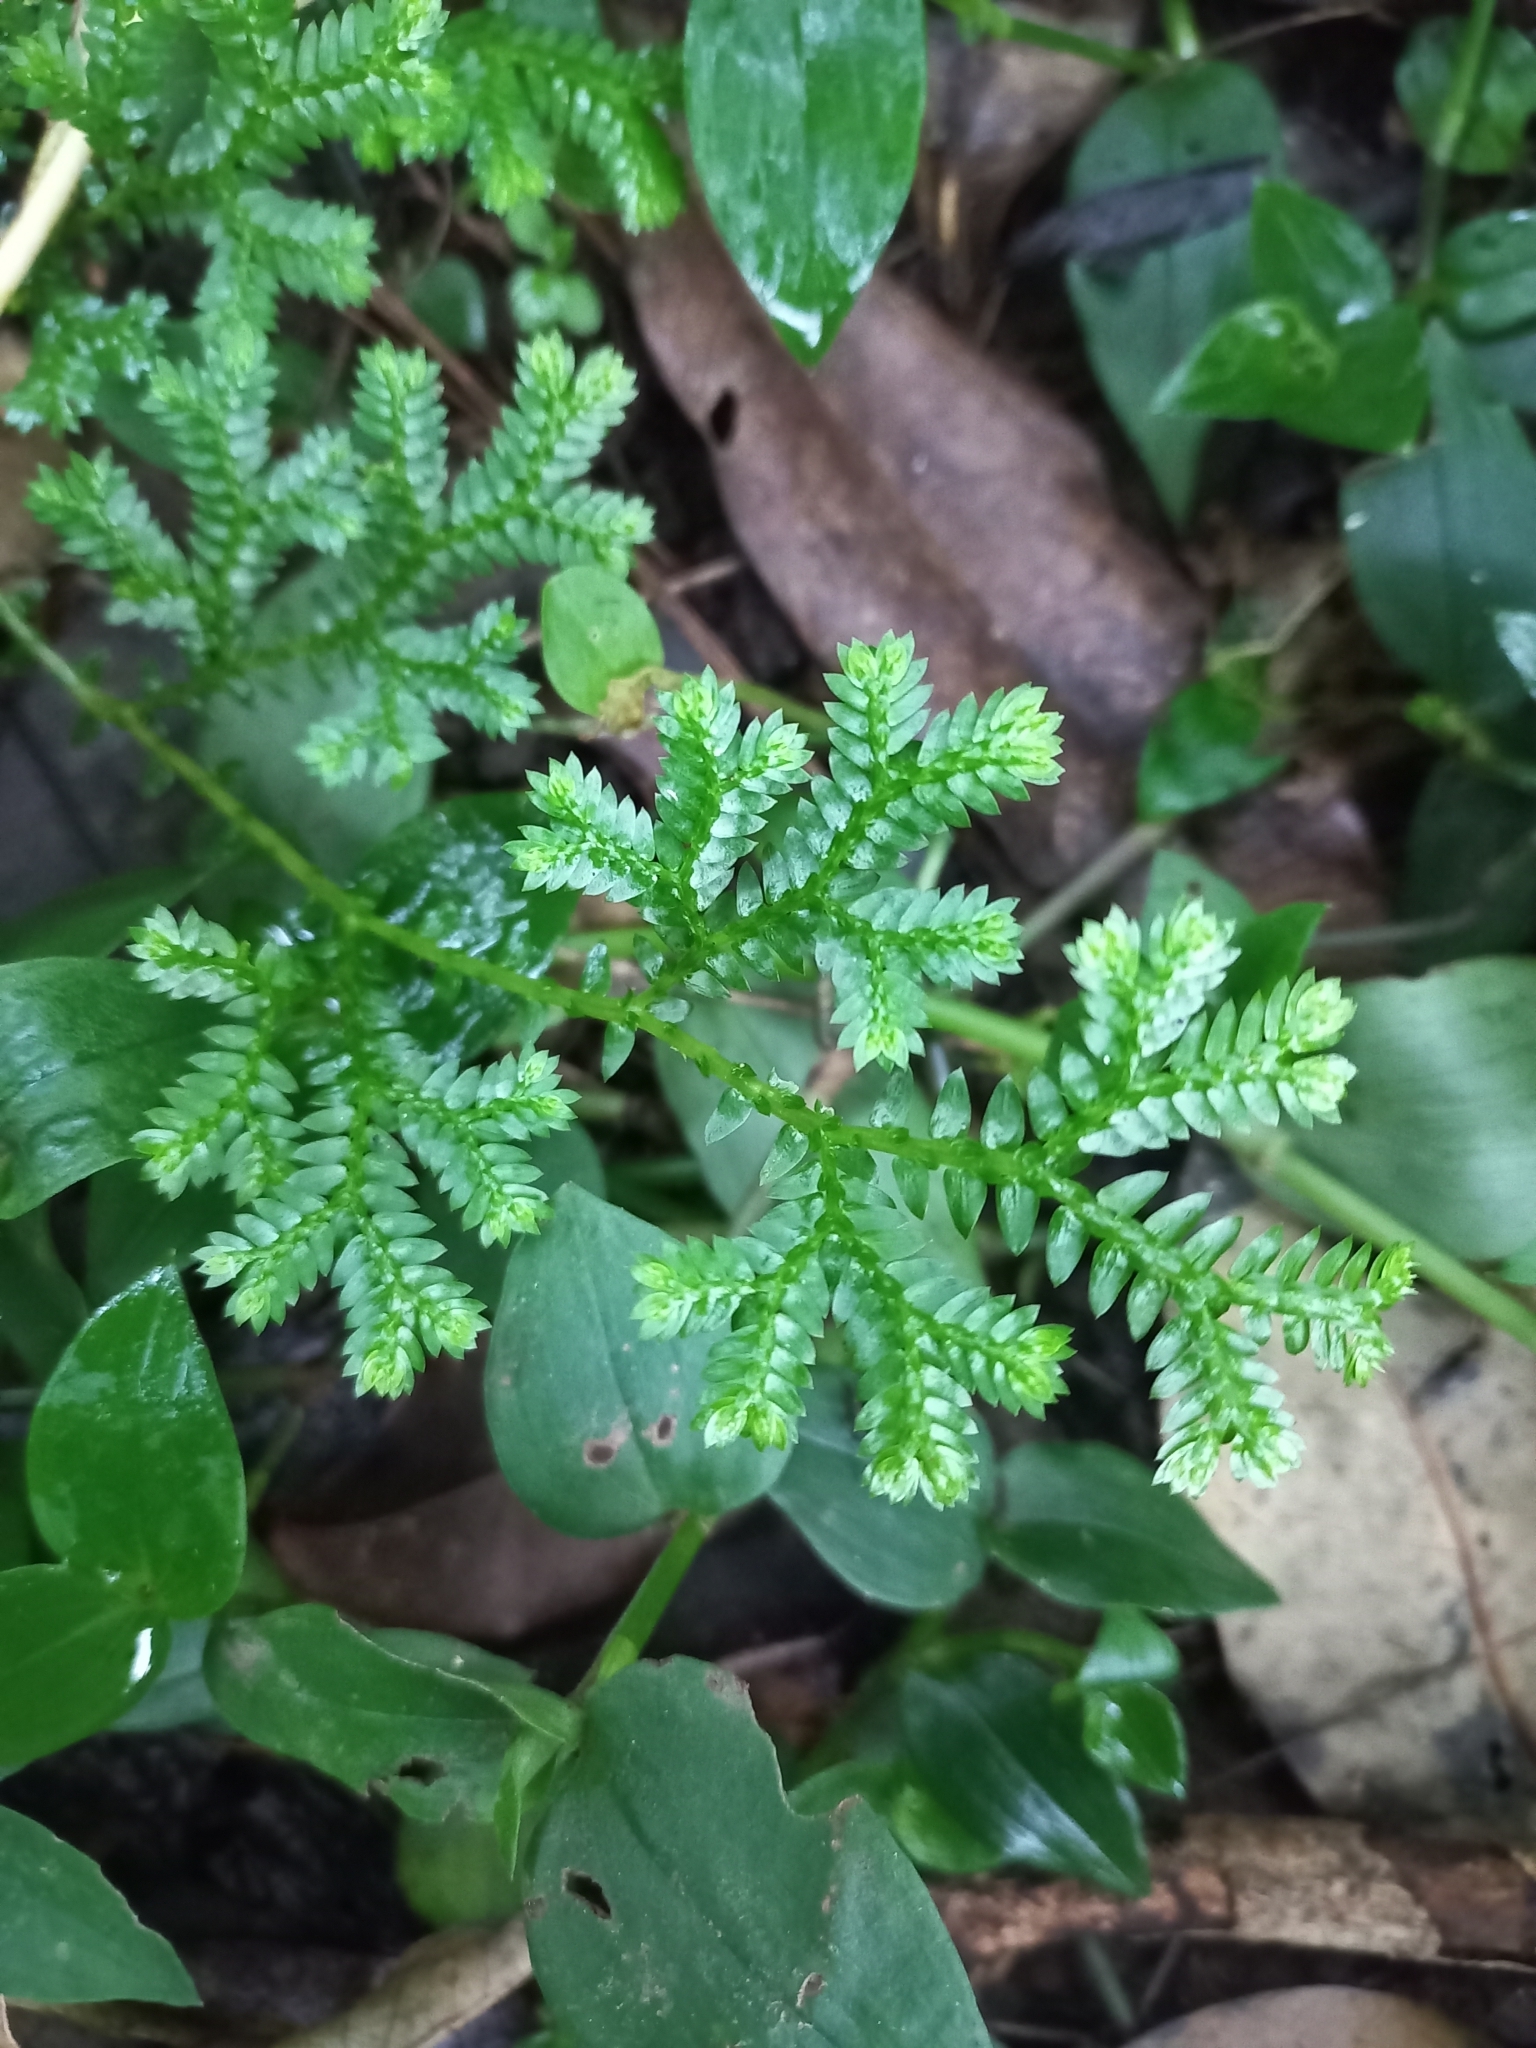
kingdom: Plantae
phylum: Tracheophyta
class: Lycopodiopsida
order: Selaginellales
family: Selaginellaceae
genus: Selaginella
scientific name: Selaginella kraussiana
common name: Krauss' spikemoss
